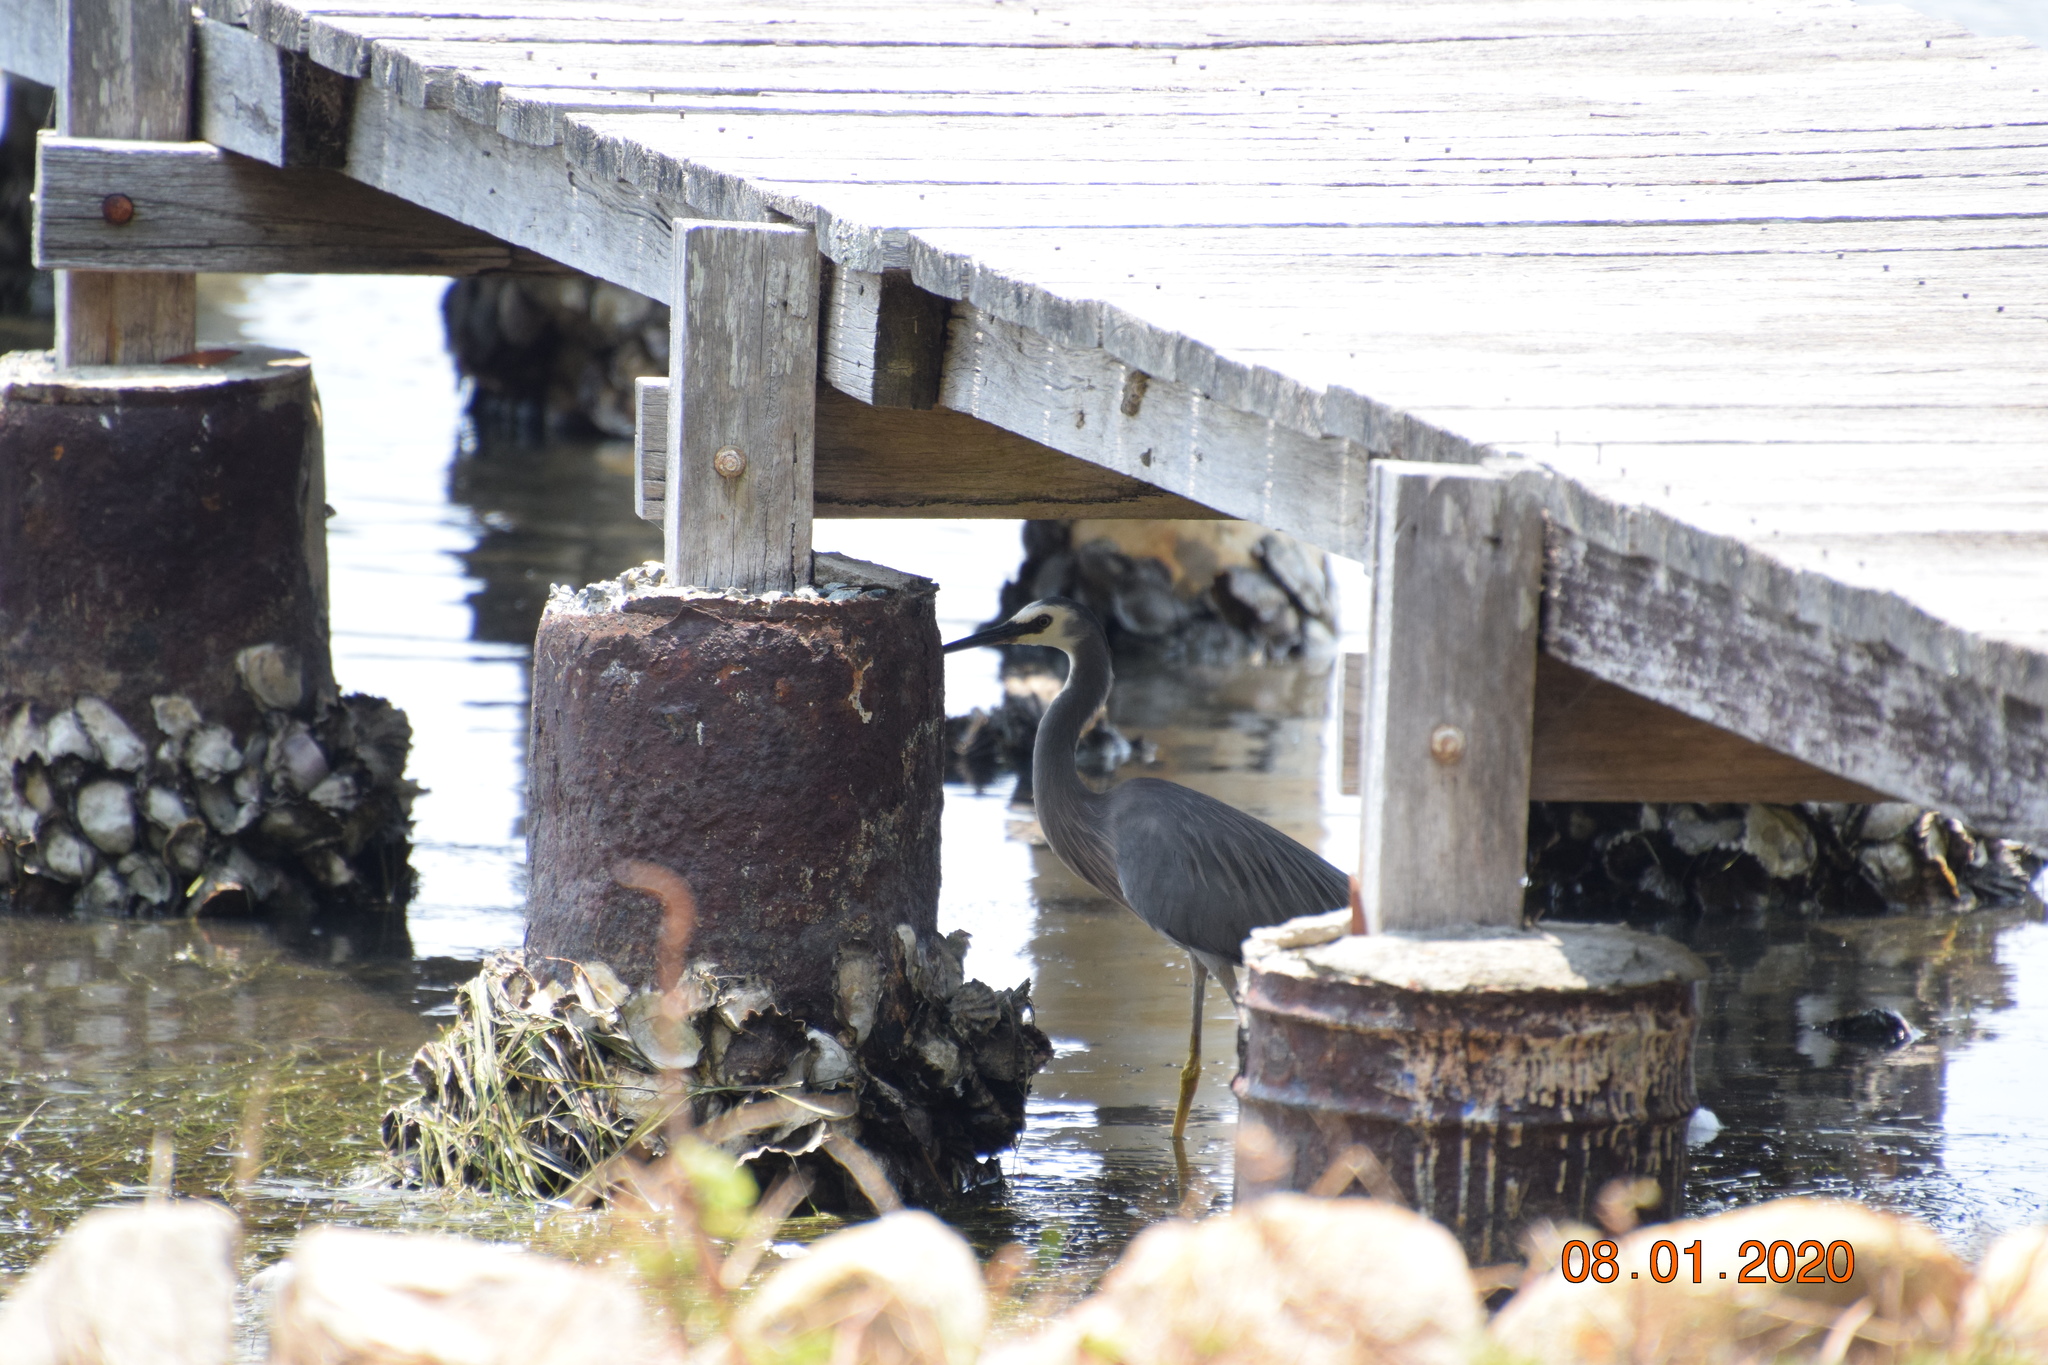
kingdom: Animalia
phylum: Chordata
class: Aves
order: Pelecaniformes
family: Ardeidae
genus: Egretta
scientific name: Egretta novaehollandiae
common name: White-faced heron
